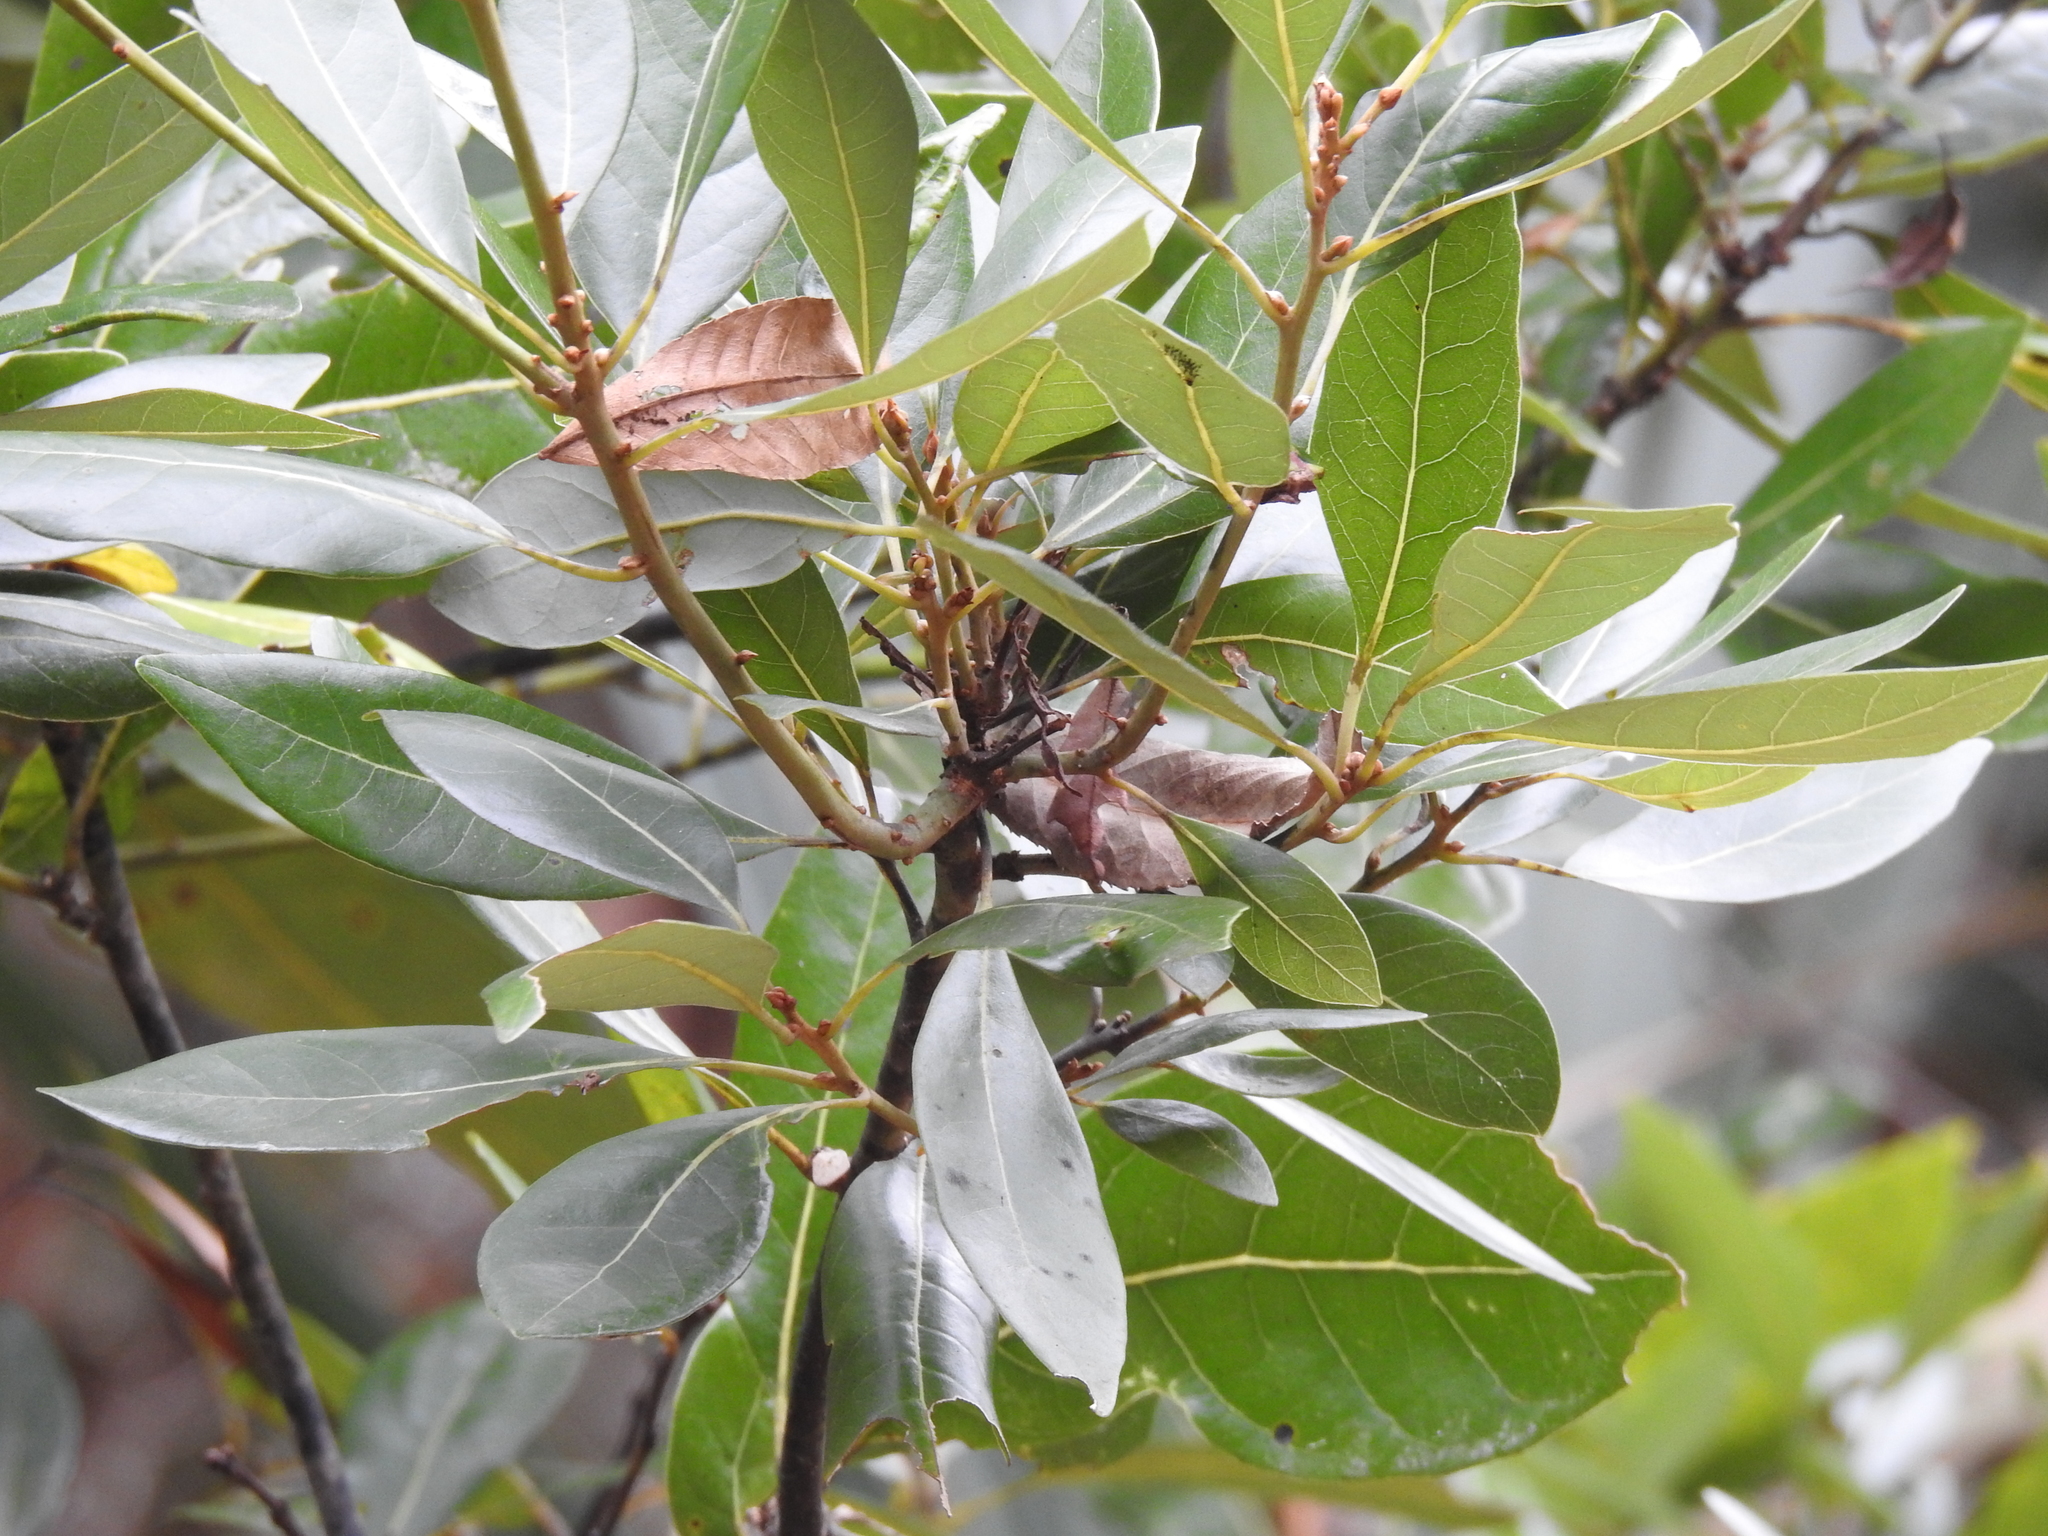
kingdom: Plantae
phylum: Tracheophyta
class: Magnoliopsida
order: Laurales
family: Lauraceae
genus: Persea
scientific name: Persea borbonia
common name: Redbay
